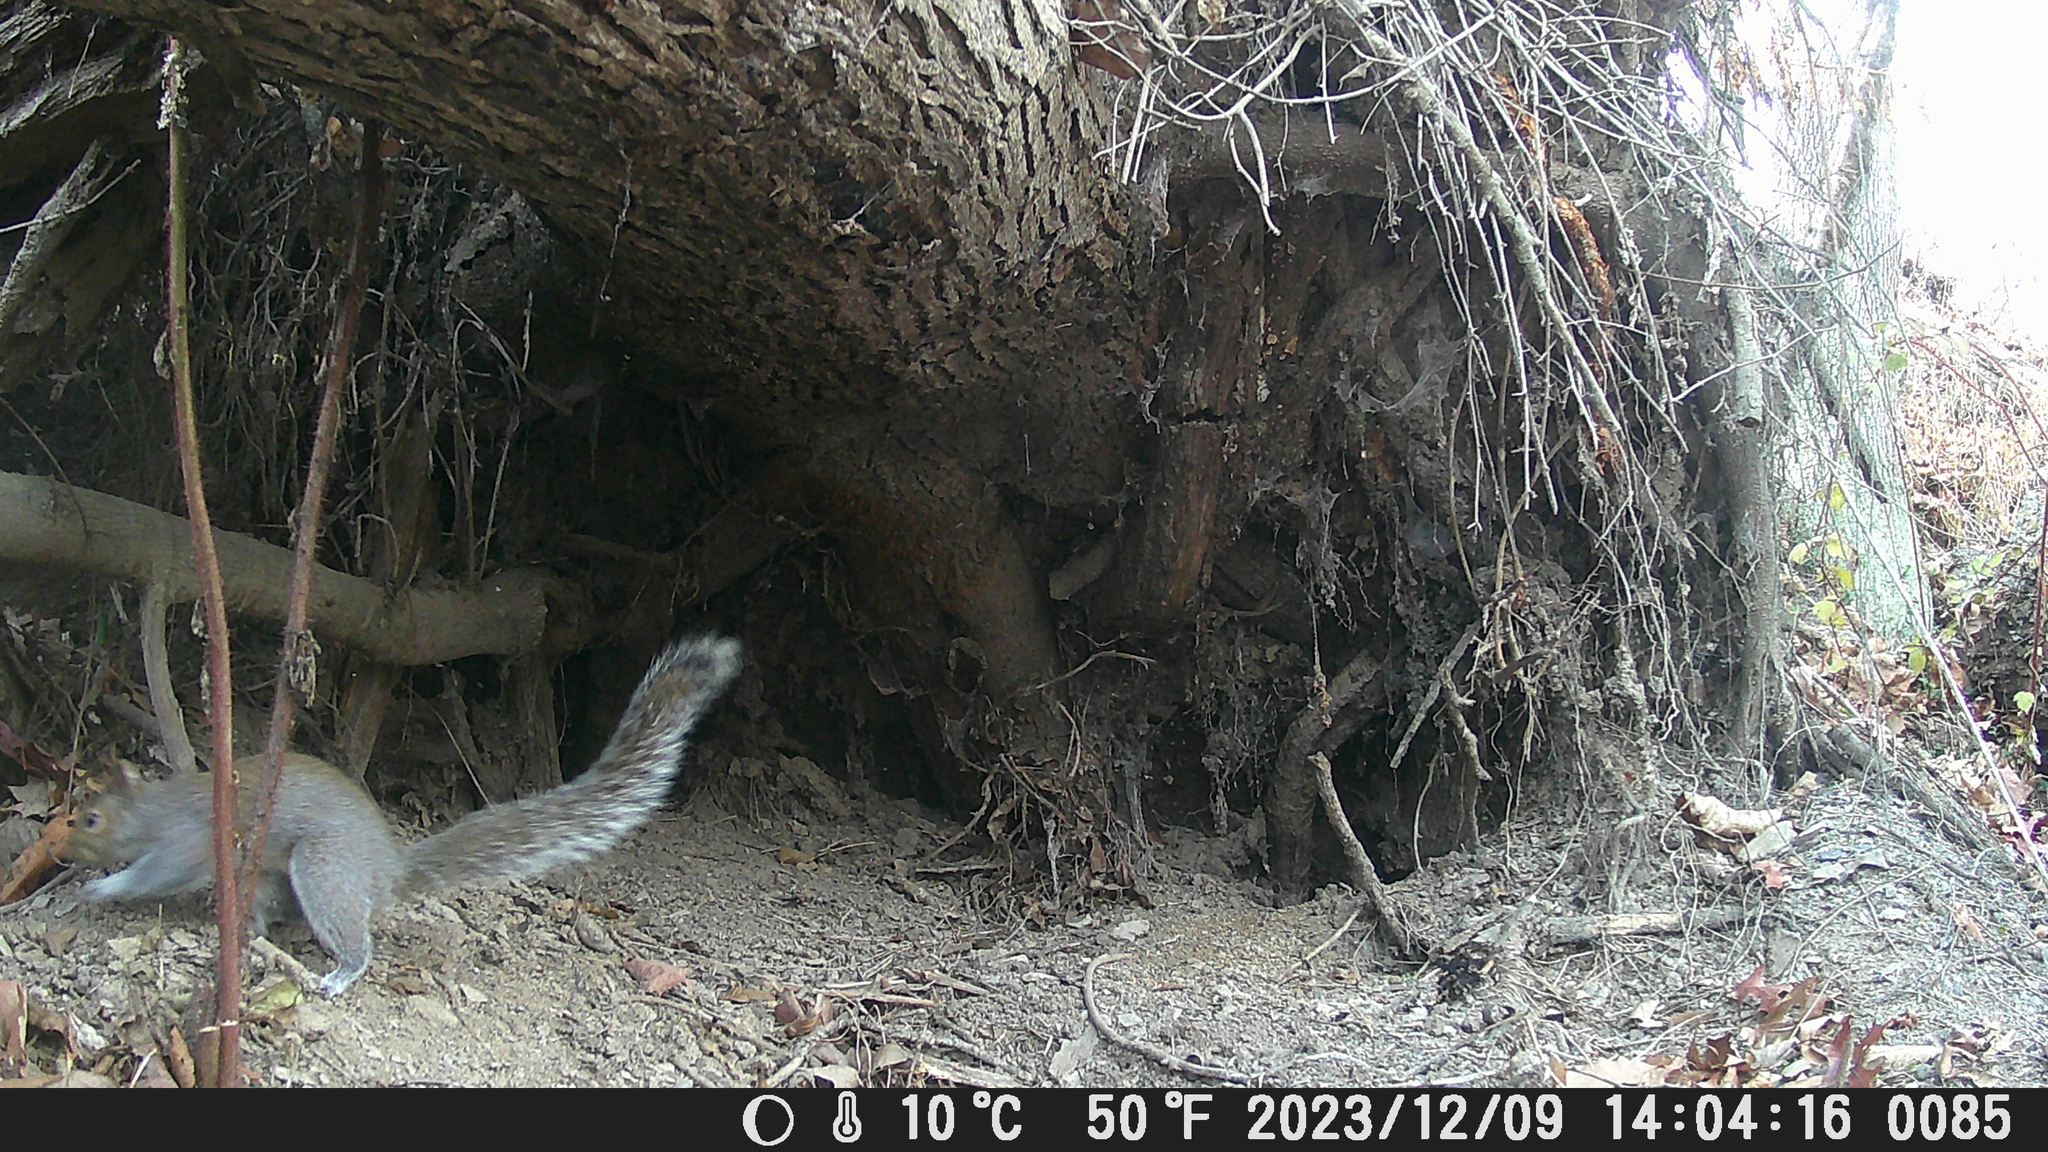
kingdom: Animalia
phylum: Chordata
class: Mammalia
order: Rodentia
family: Sciuridae
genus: Sciurus
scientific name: Sciurus carolinensis
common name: Eastern gray squirrel
